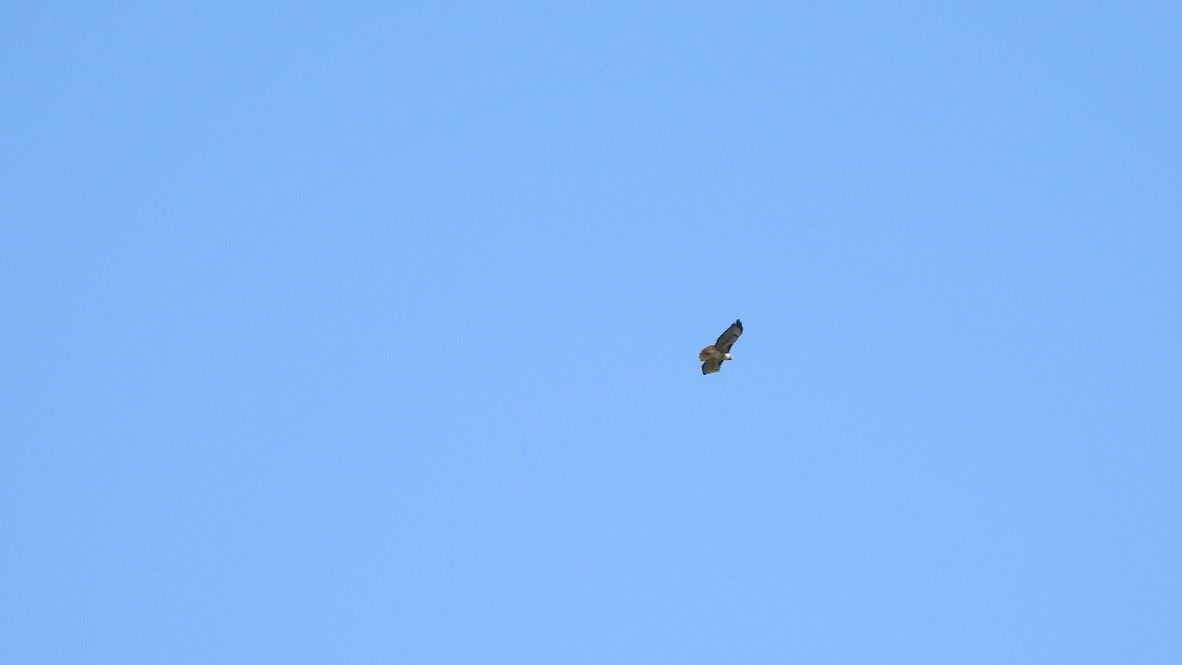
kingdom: Animalia
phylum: Chordata
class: Aves
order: Accipitriformes
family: Accipitridae
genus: Buteo
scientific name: Buteo jamaicensis
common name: Red-tailed hawk
